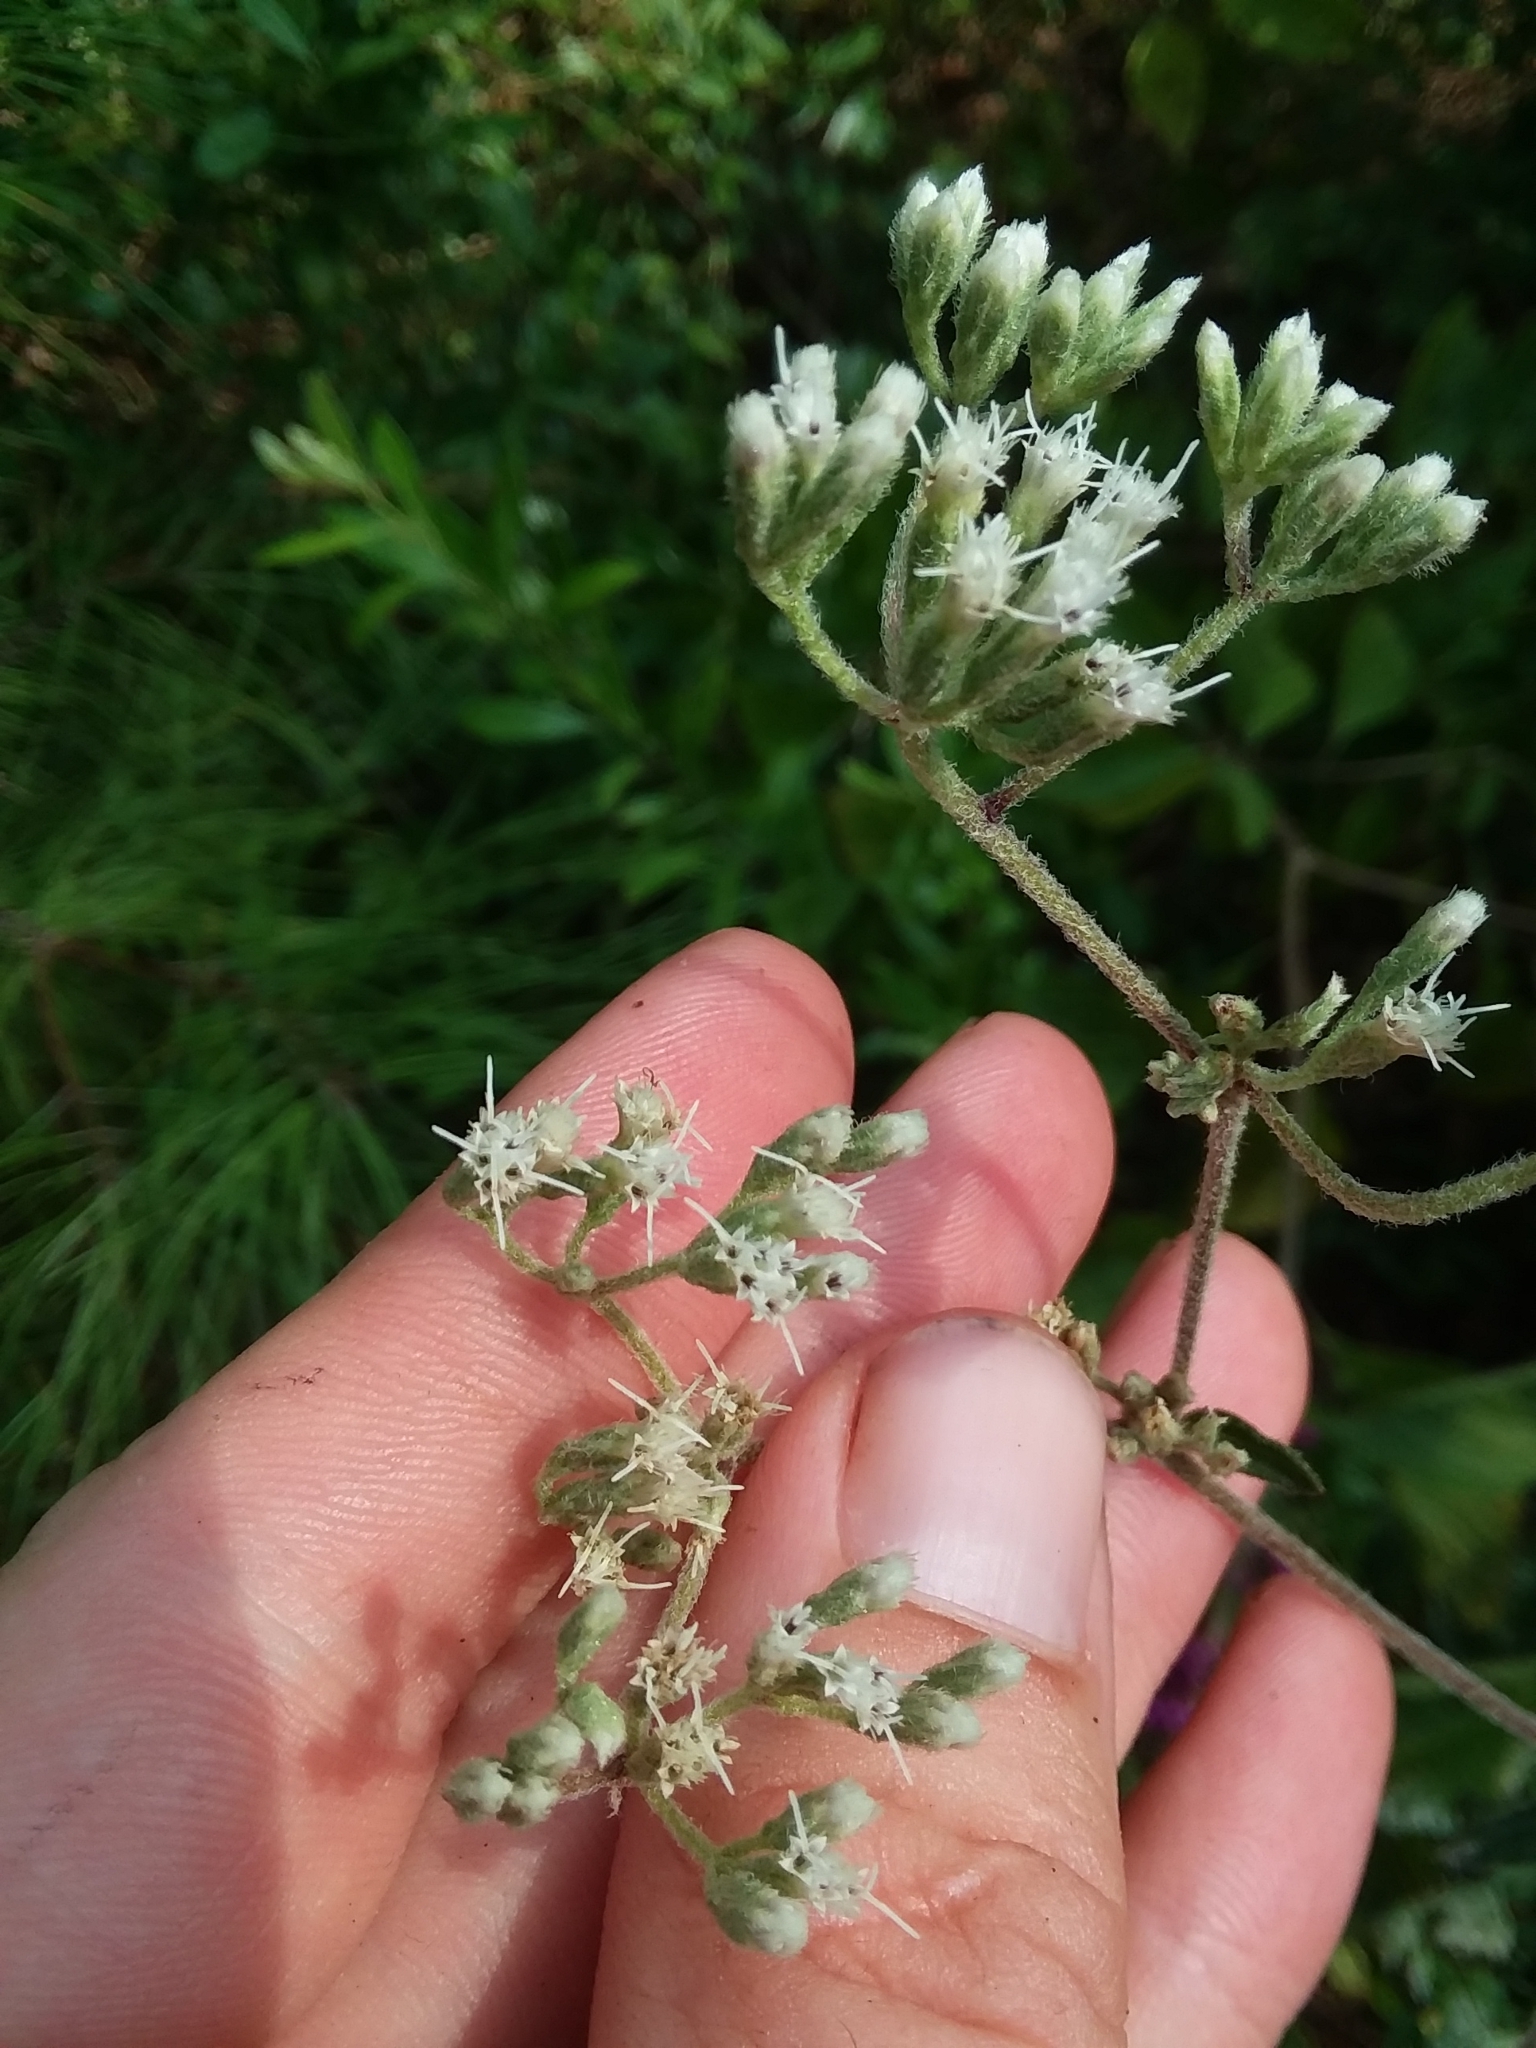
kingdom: Plantae
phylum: Tracheophyta
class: Magnoliopsida
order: Asterales
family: Asteraceae
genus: Eupatorium
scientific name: Eupatorium pilosum
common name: Rough boneset
